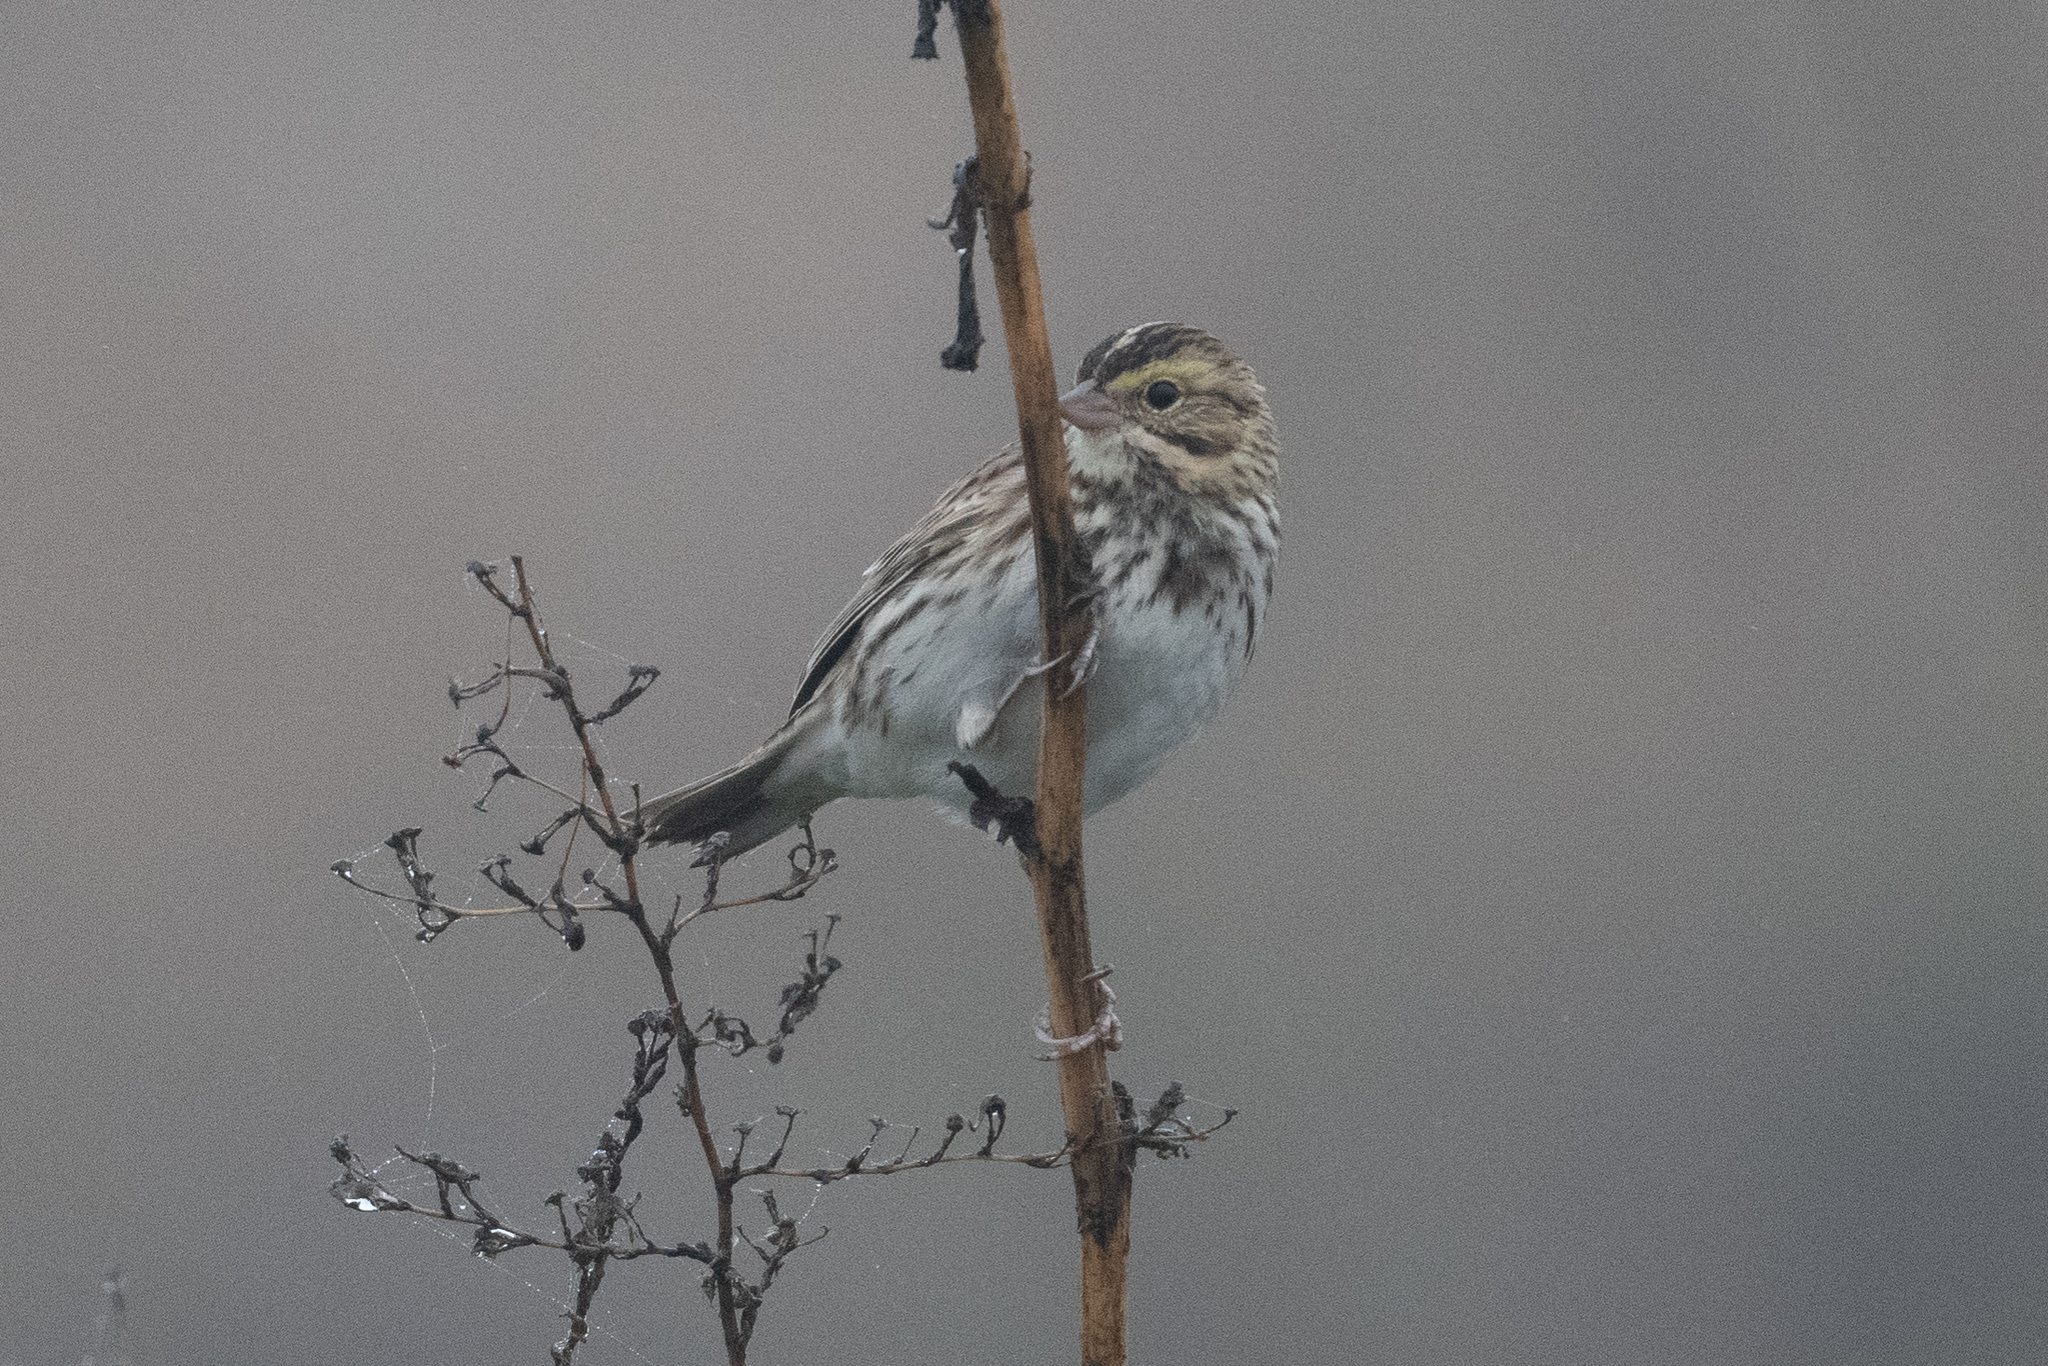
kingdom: Animalia
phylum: Chordata
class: Aves
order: Passeriformes
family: Passerellidae
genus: Passerculus
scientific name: Passerculus sandwichensis
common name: Savannah sparrow
